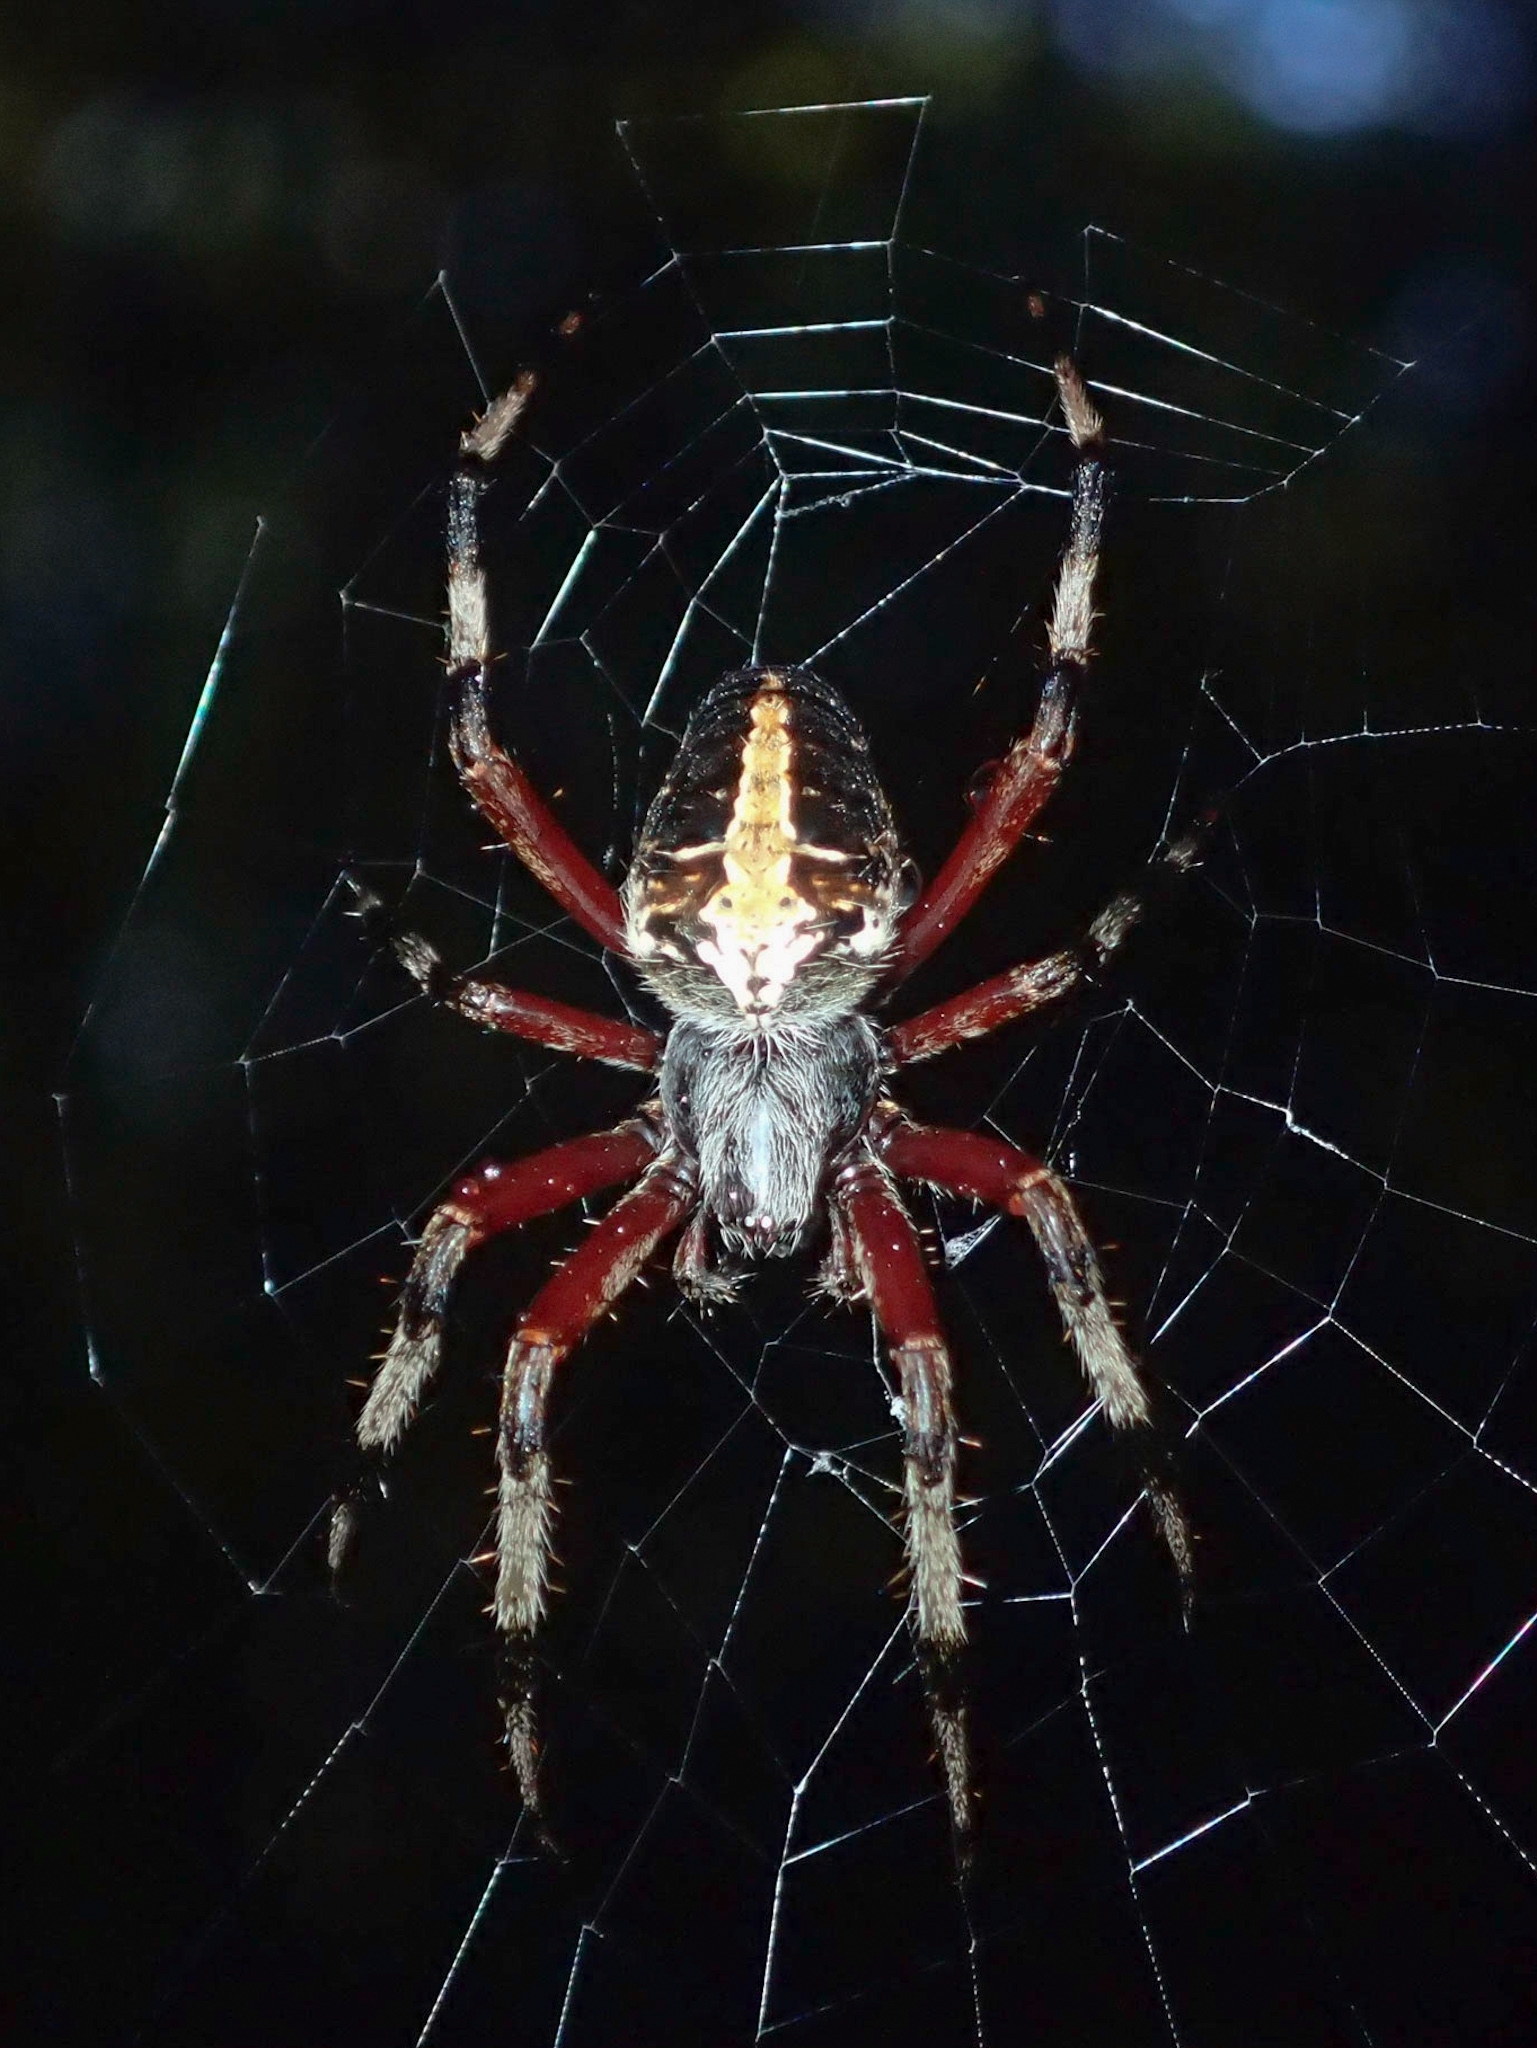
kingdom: Animalia
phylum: Arthropoda
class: Arachnida
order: Araneae
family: Araneidae
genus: Neoscona
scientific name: Neoscona domiciliorum
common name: Red-femured spotted orbweaver
